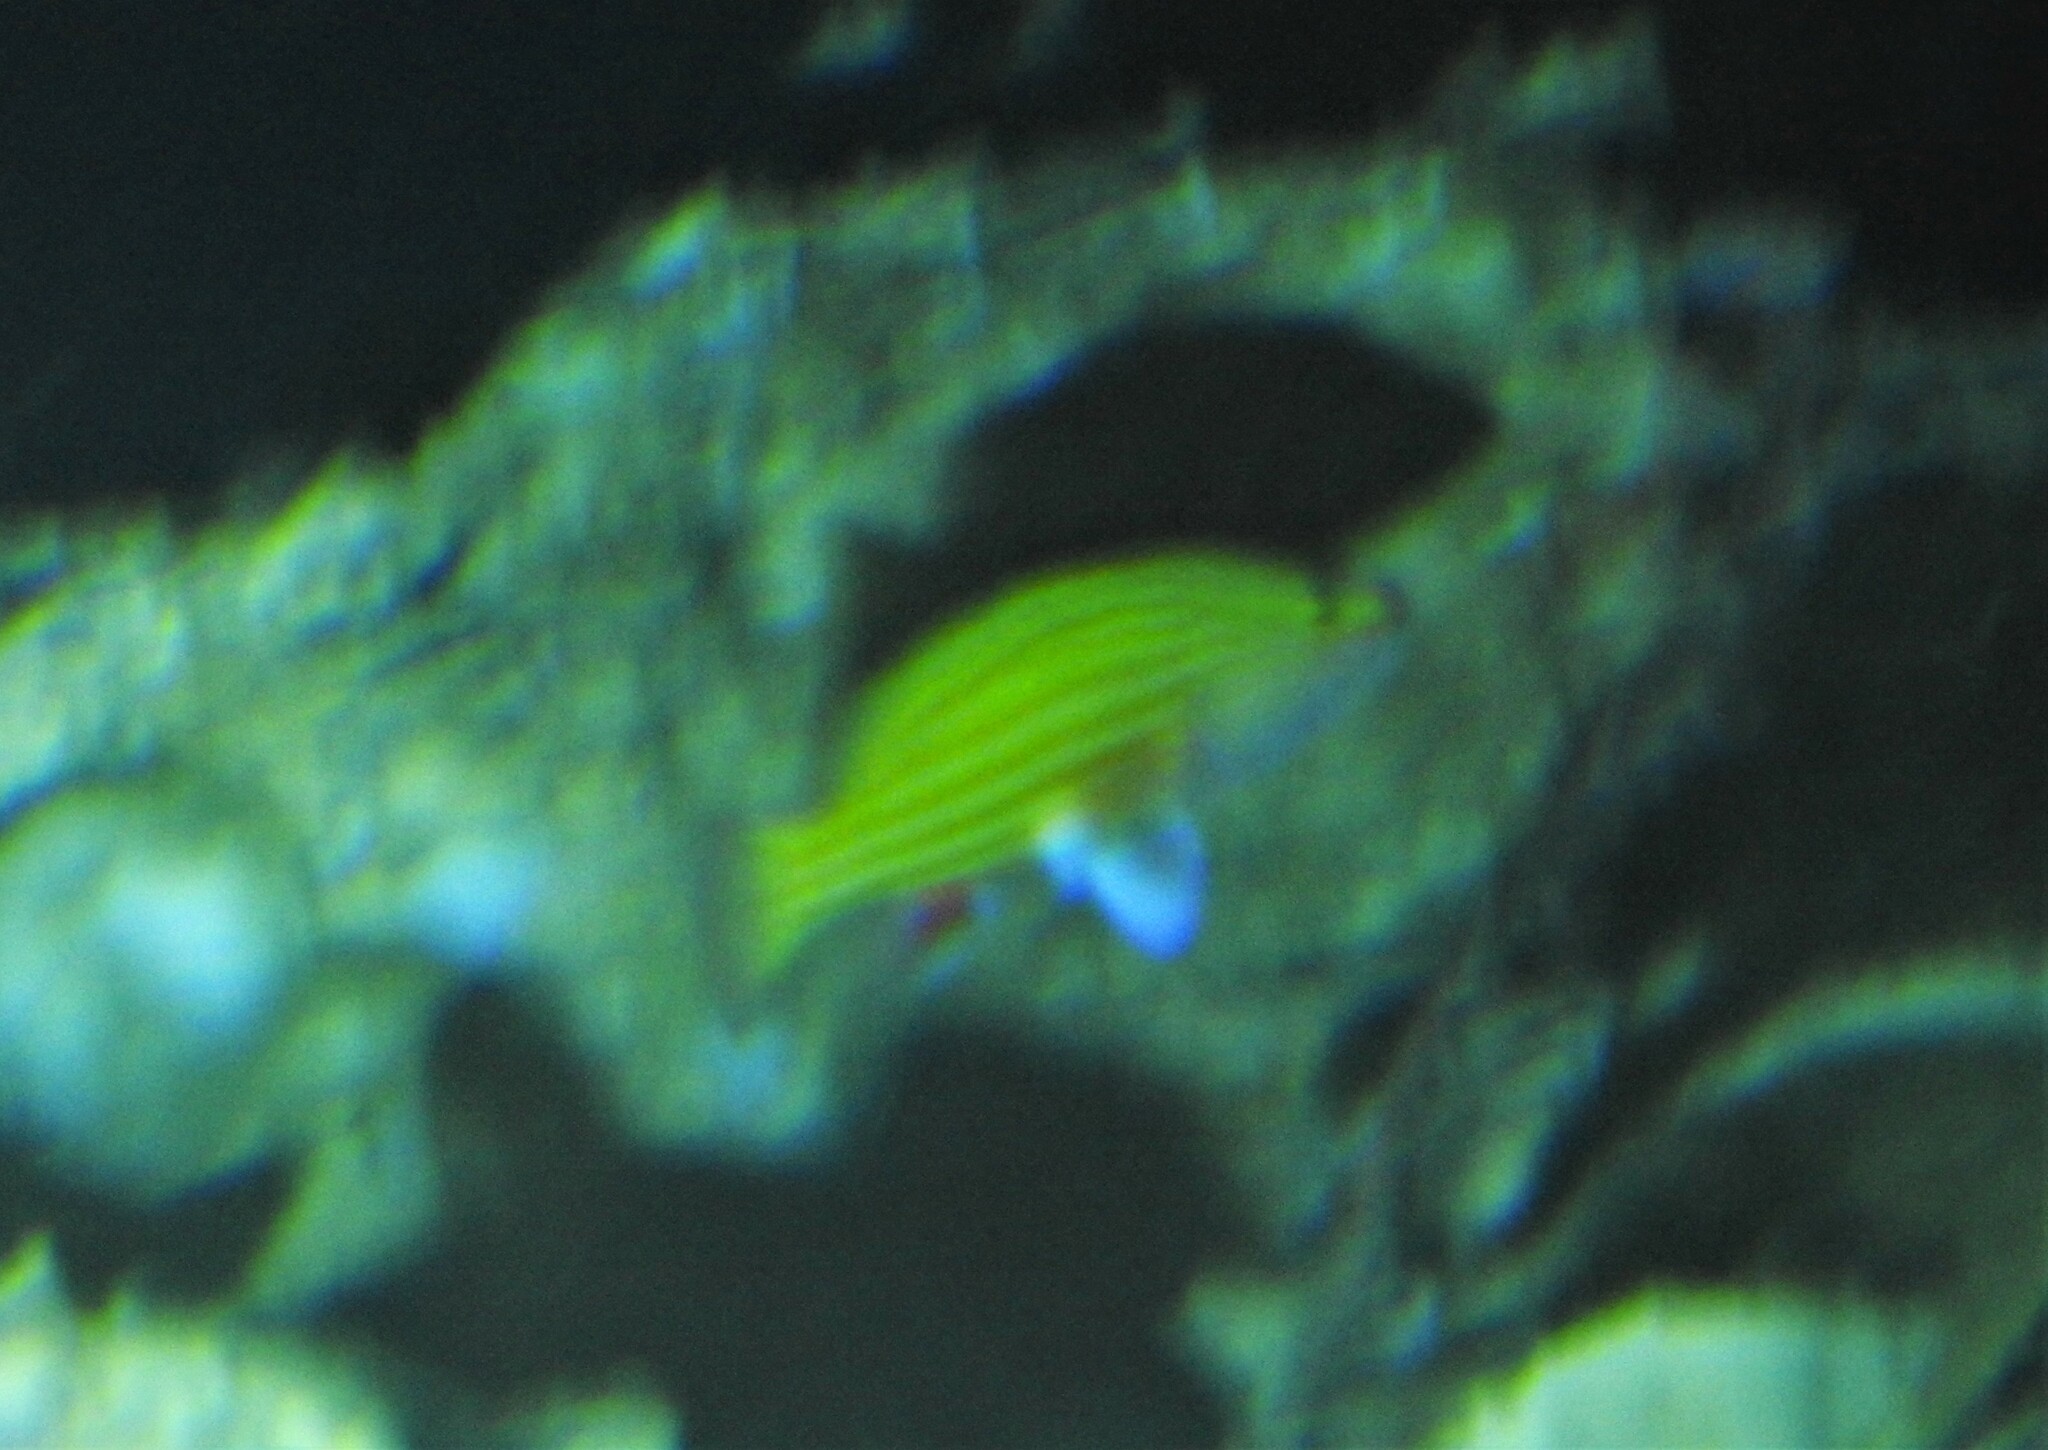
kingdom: Animalia
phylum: Chordata
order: Perciformes
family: Serranidae
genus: Gonioplectrus
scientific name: Gonioplectrus hispanus
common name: Spanish flag
